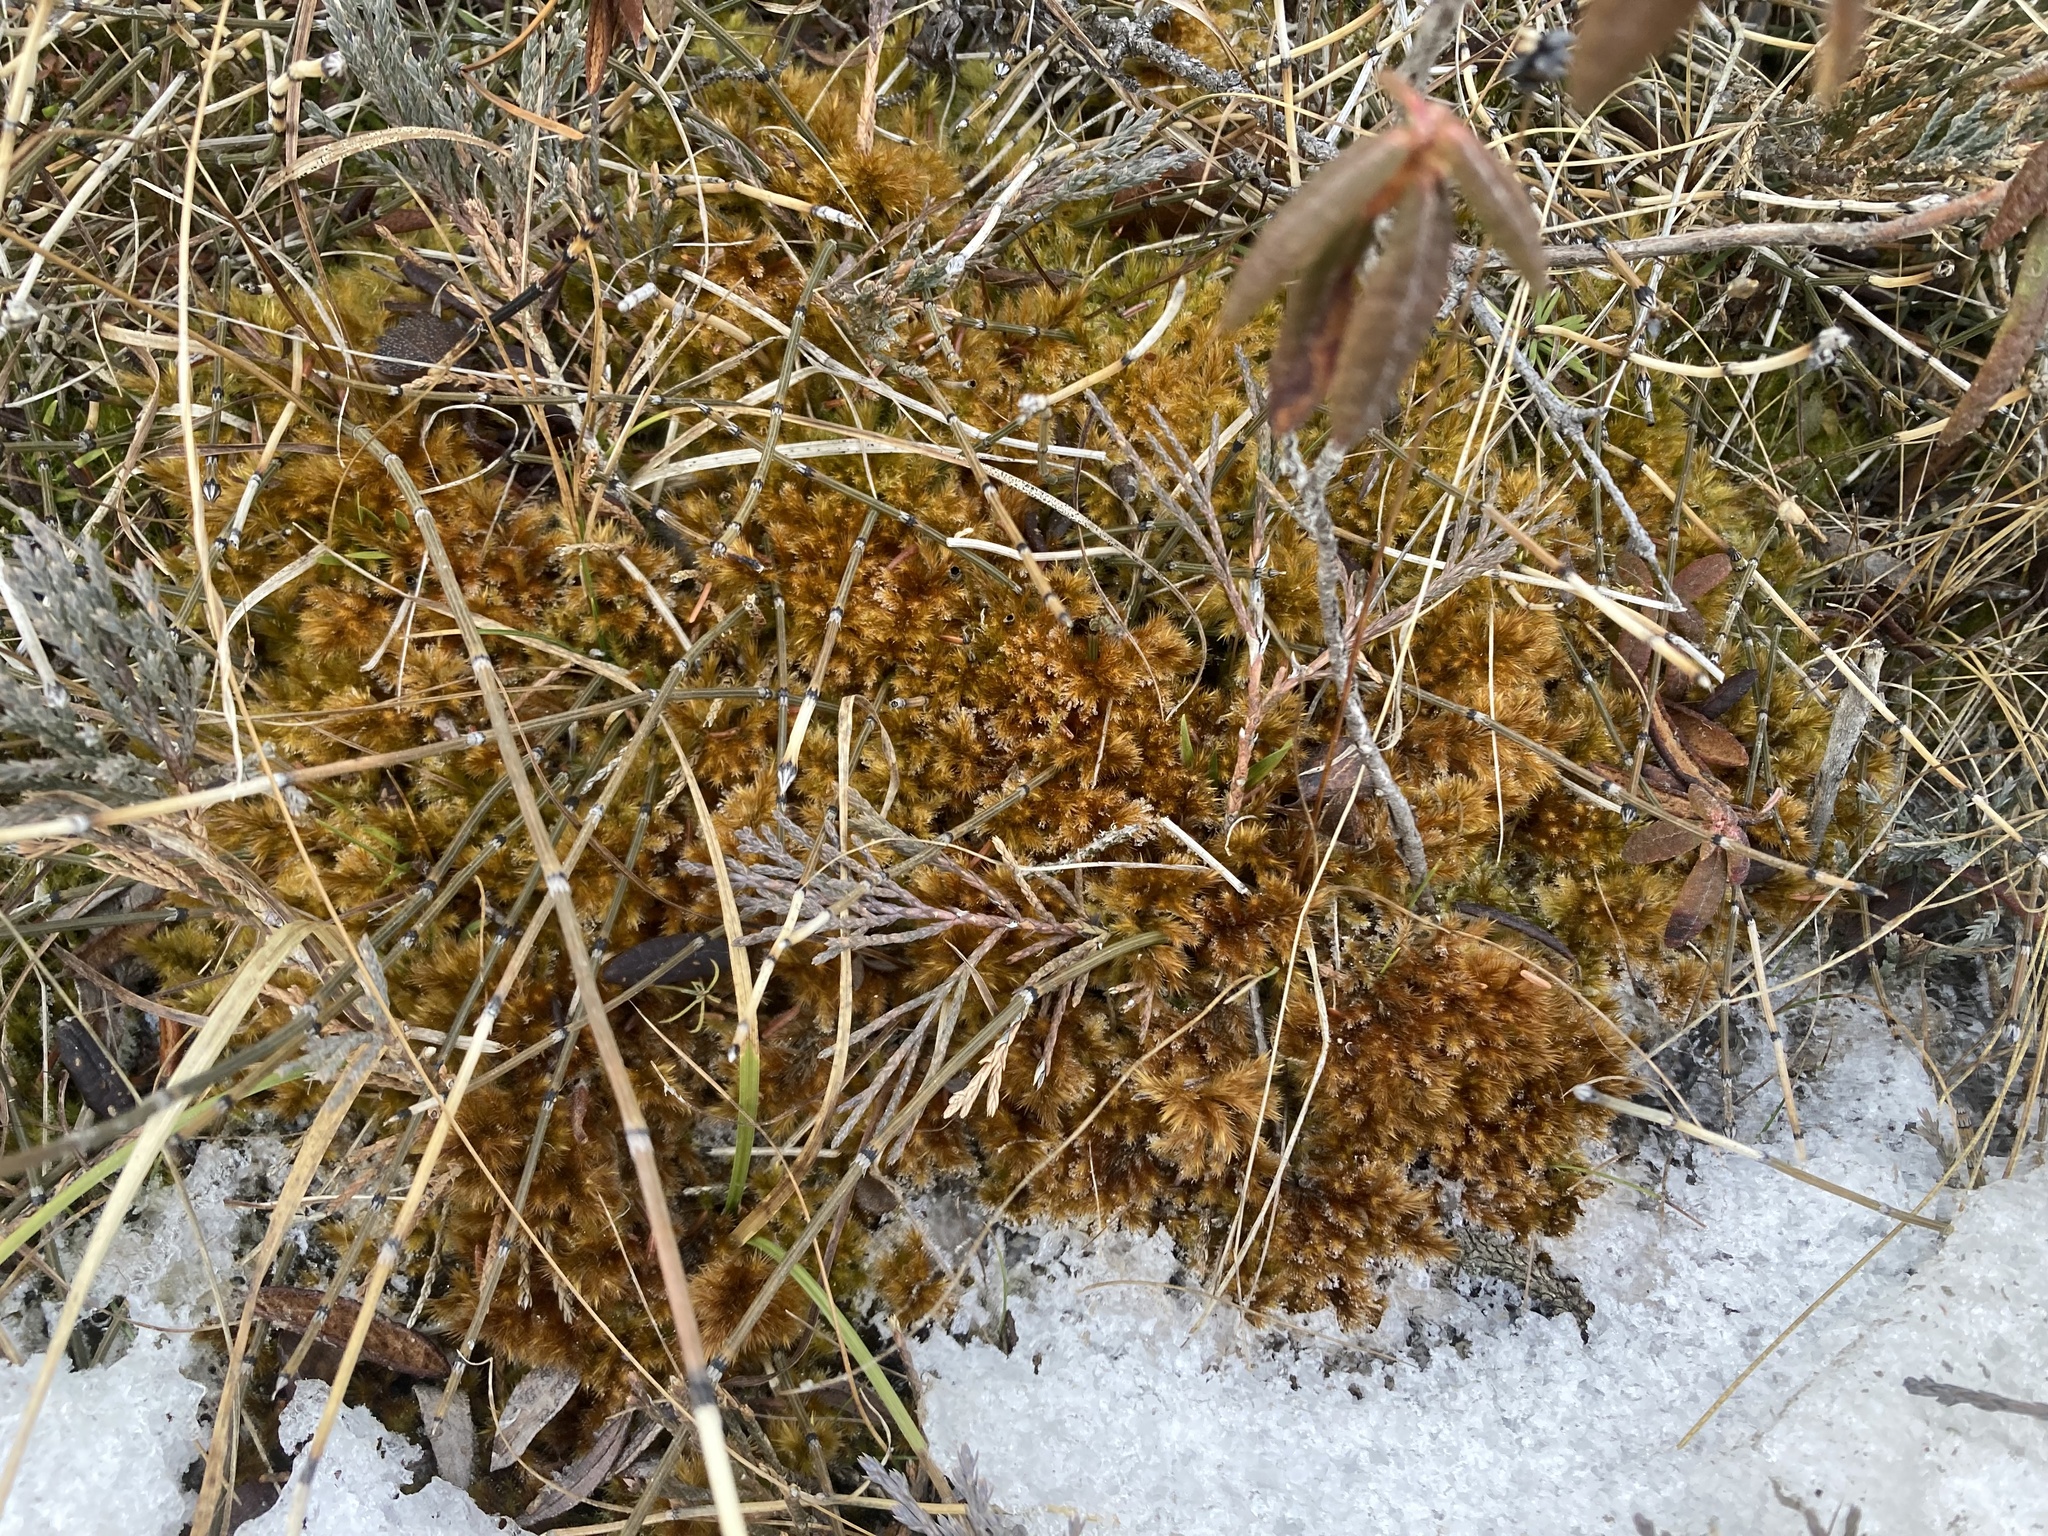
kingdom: Plantae
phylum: Bryophyta
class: Bryopsida
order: Hypnales
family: Amblystegiaceae
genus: Tomentypnum
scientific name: Tomentypnum nitens
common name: Golden fuzzy fen moss
